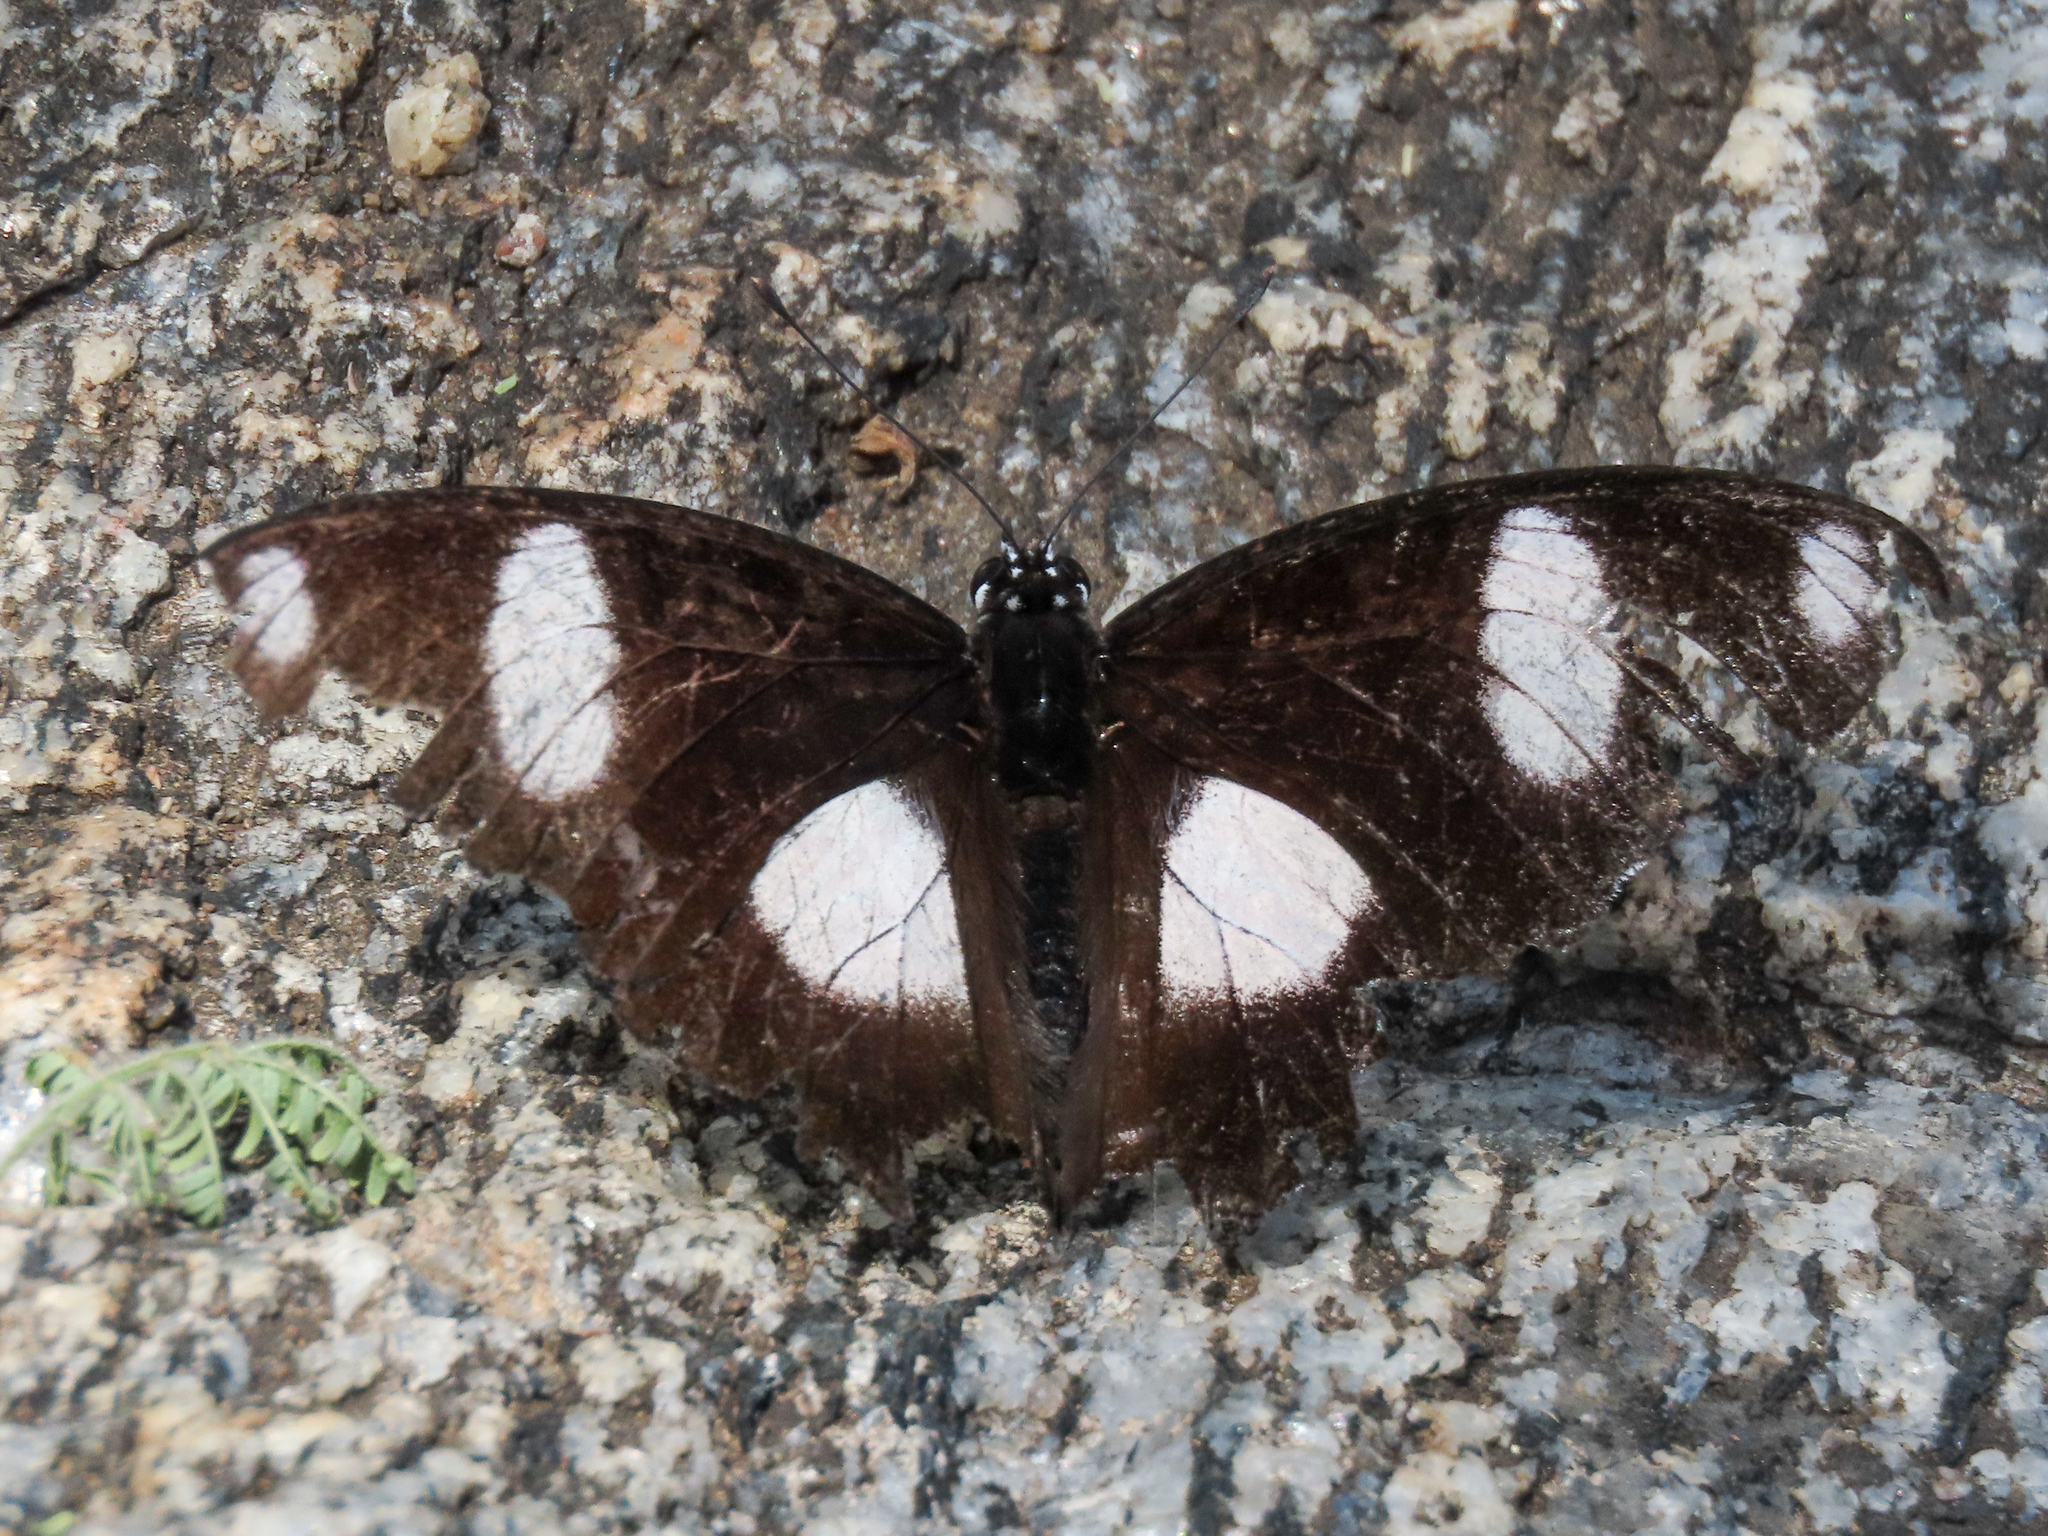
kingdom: Animalia
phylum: Arthropoda
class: Insecta
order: Lepidoptera
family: Nymphalidae
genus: Hypolimnas
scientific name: Hypolimnas misippus
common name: False plain tiger
